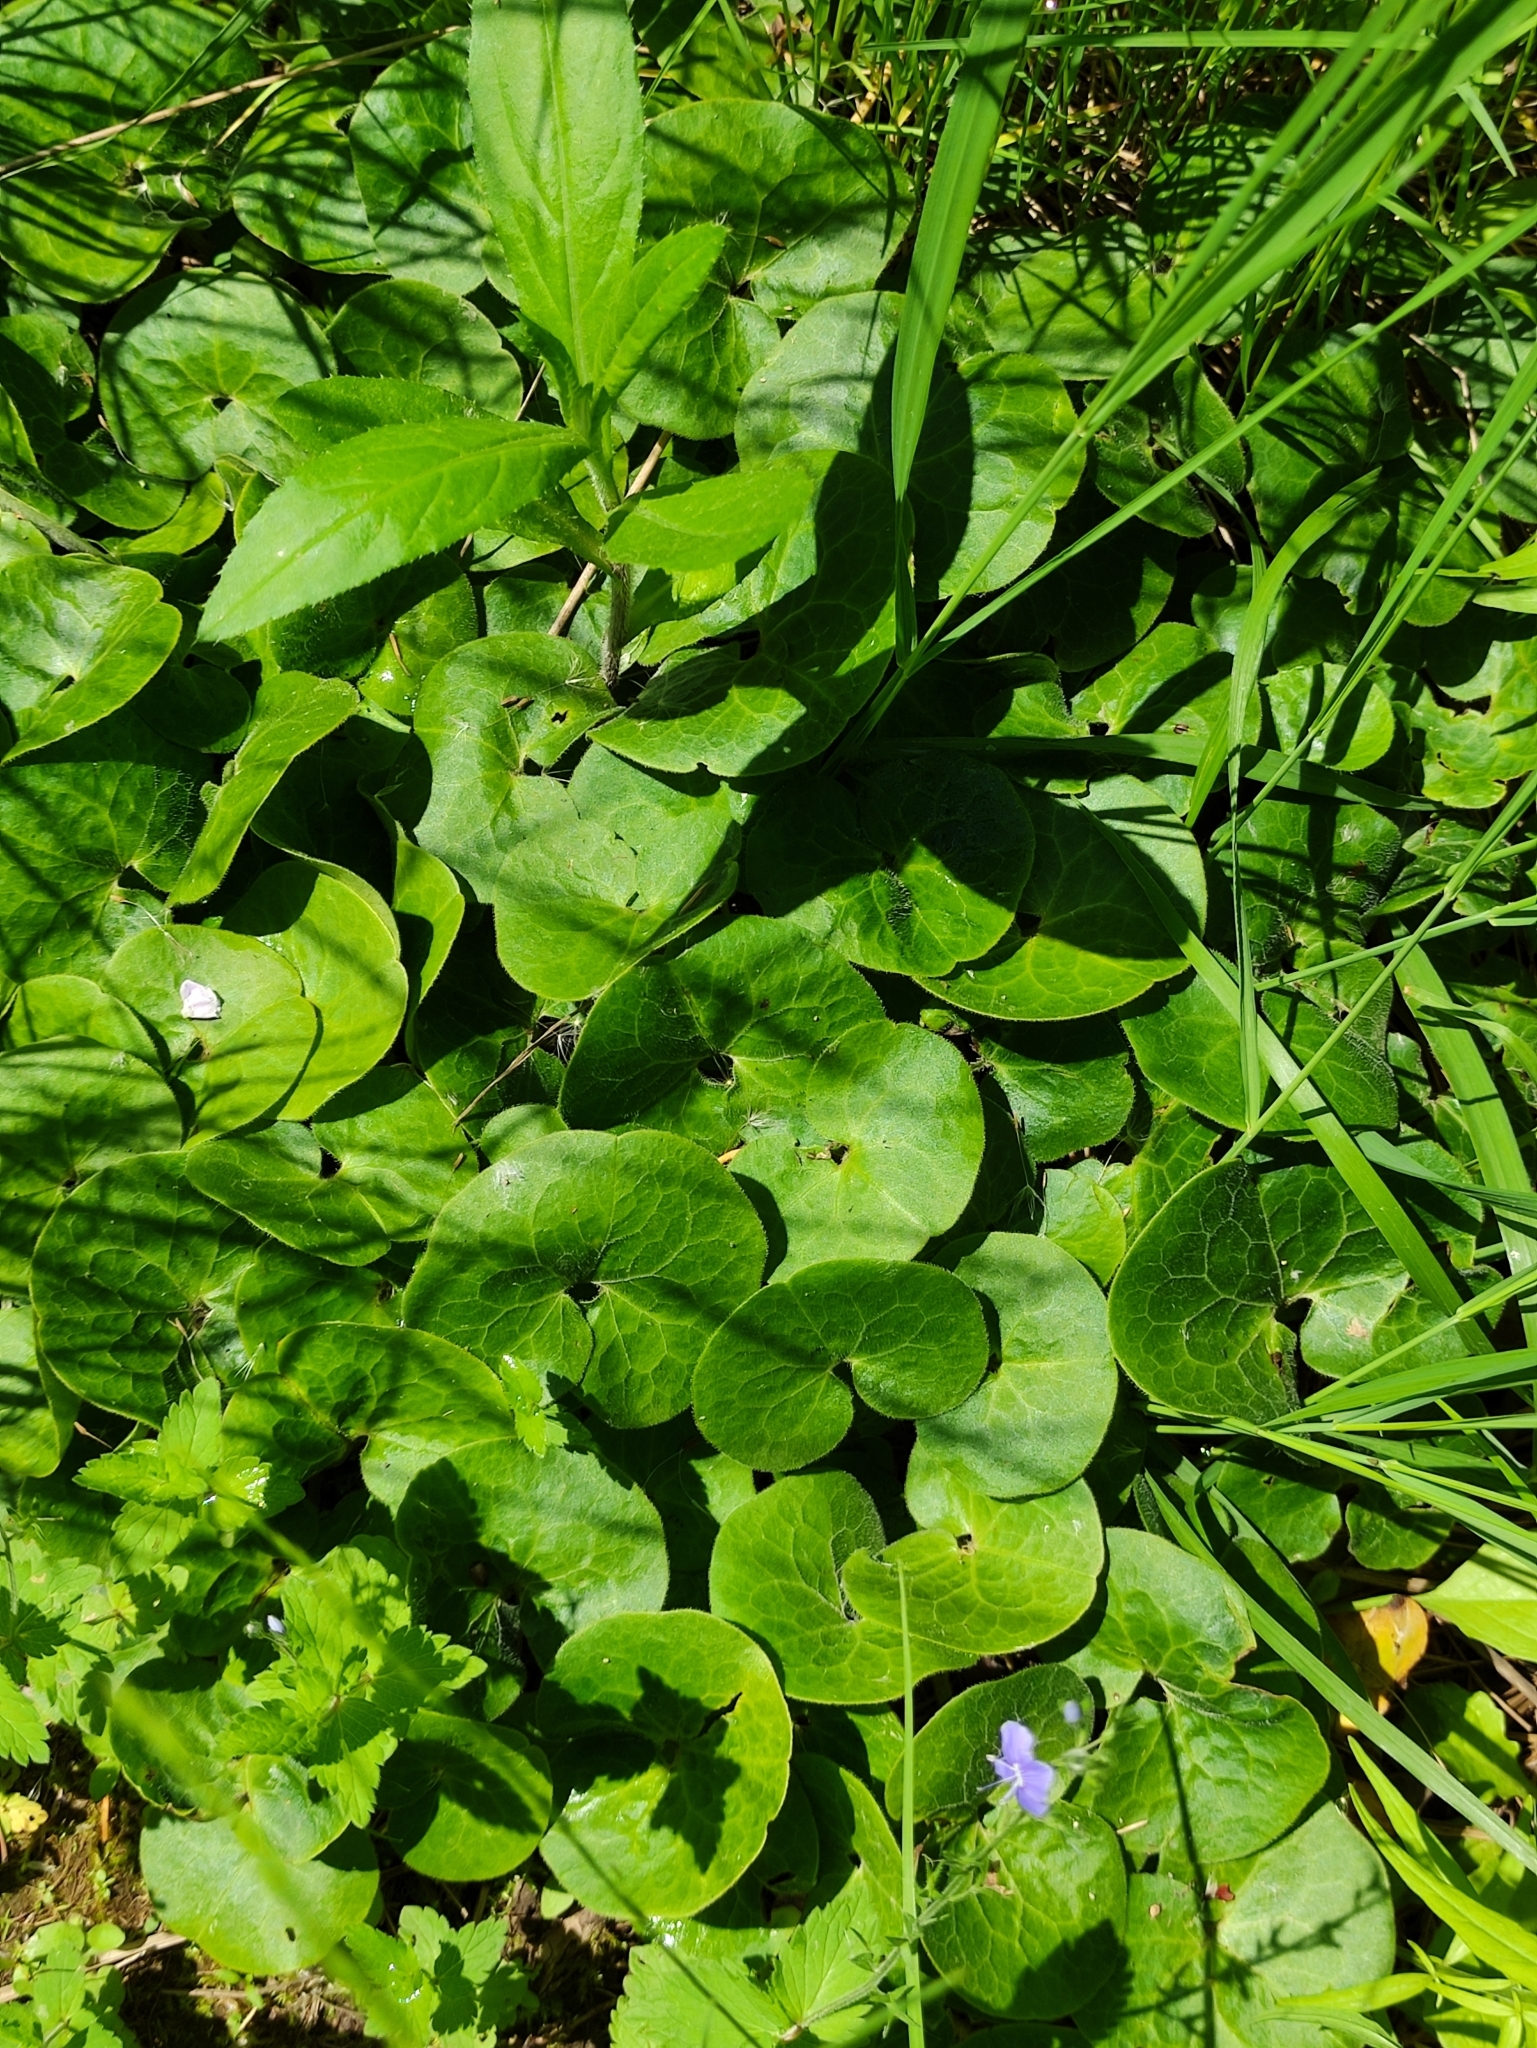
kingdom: Plantae
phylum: Tracheophyta
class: Magnoliopsida
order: Piperales
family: Aristolochiaceae
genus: Asarum
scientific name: Asarum europaeum
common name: Asarabacca
